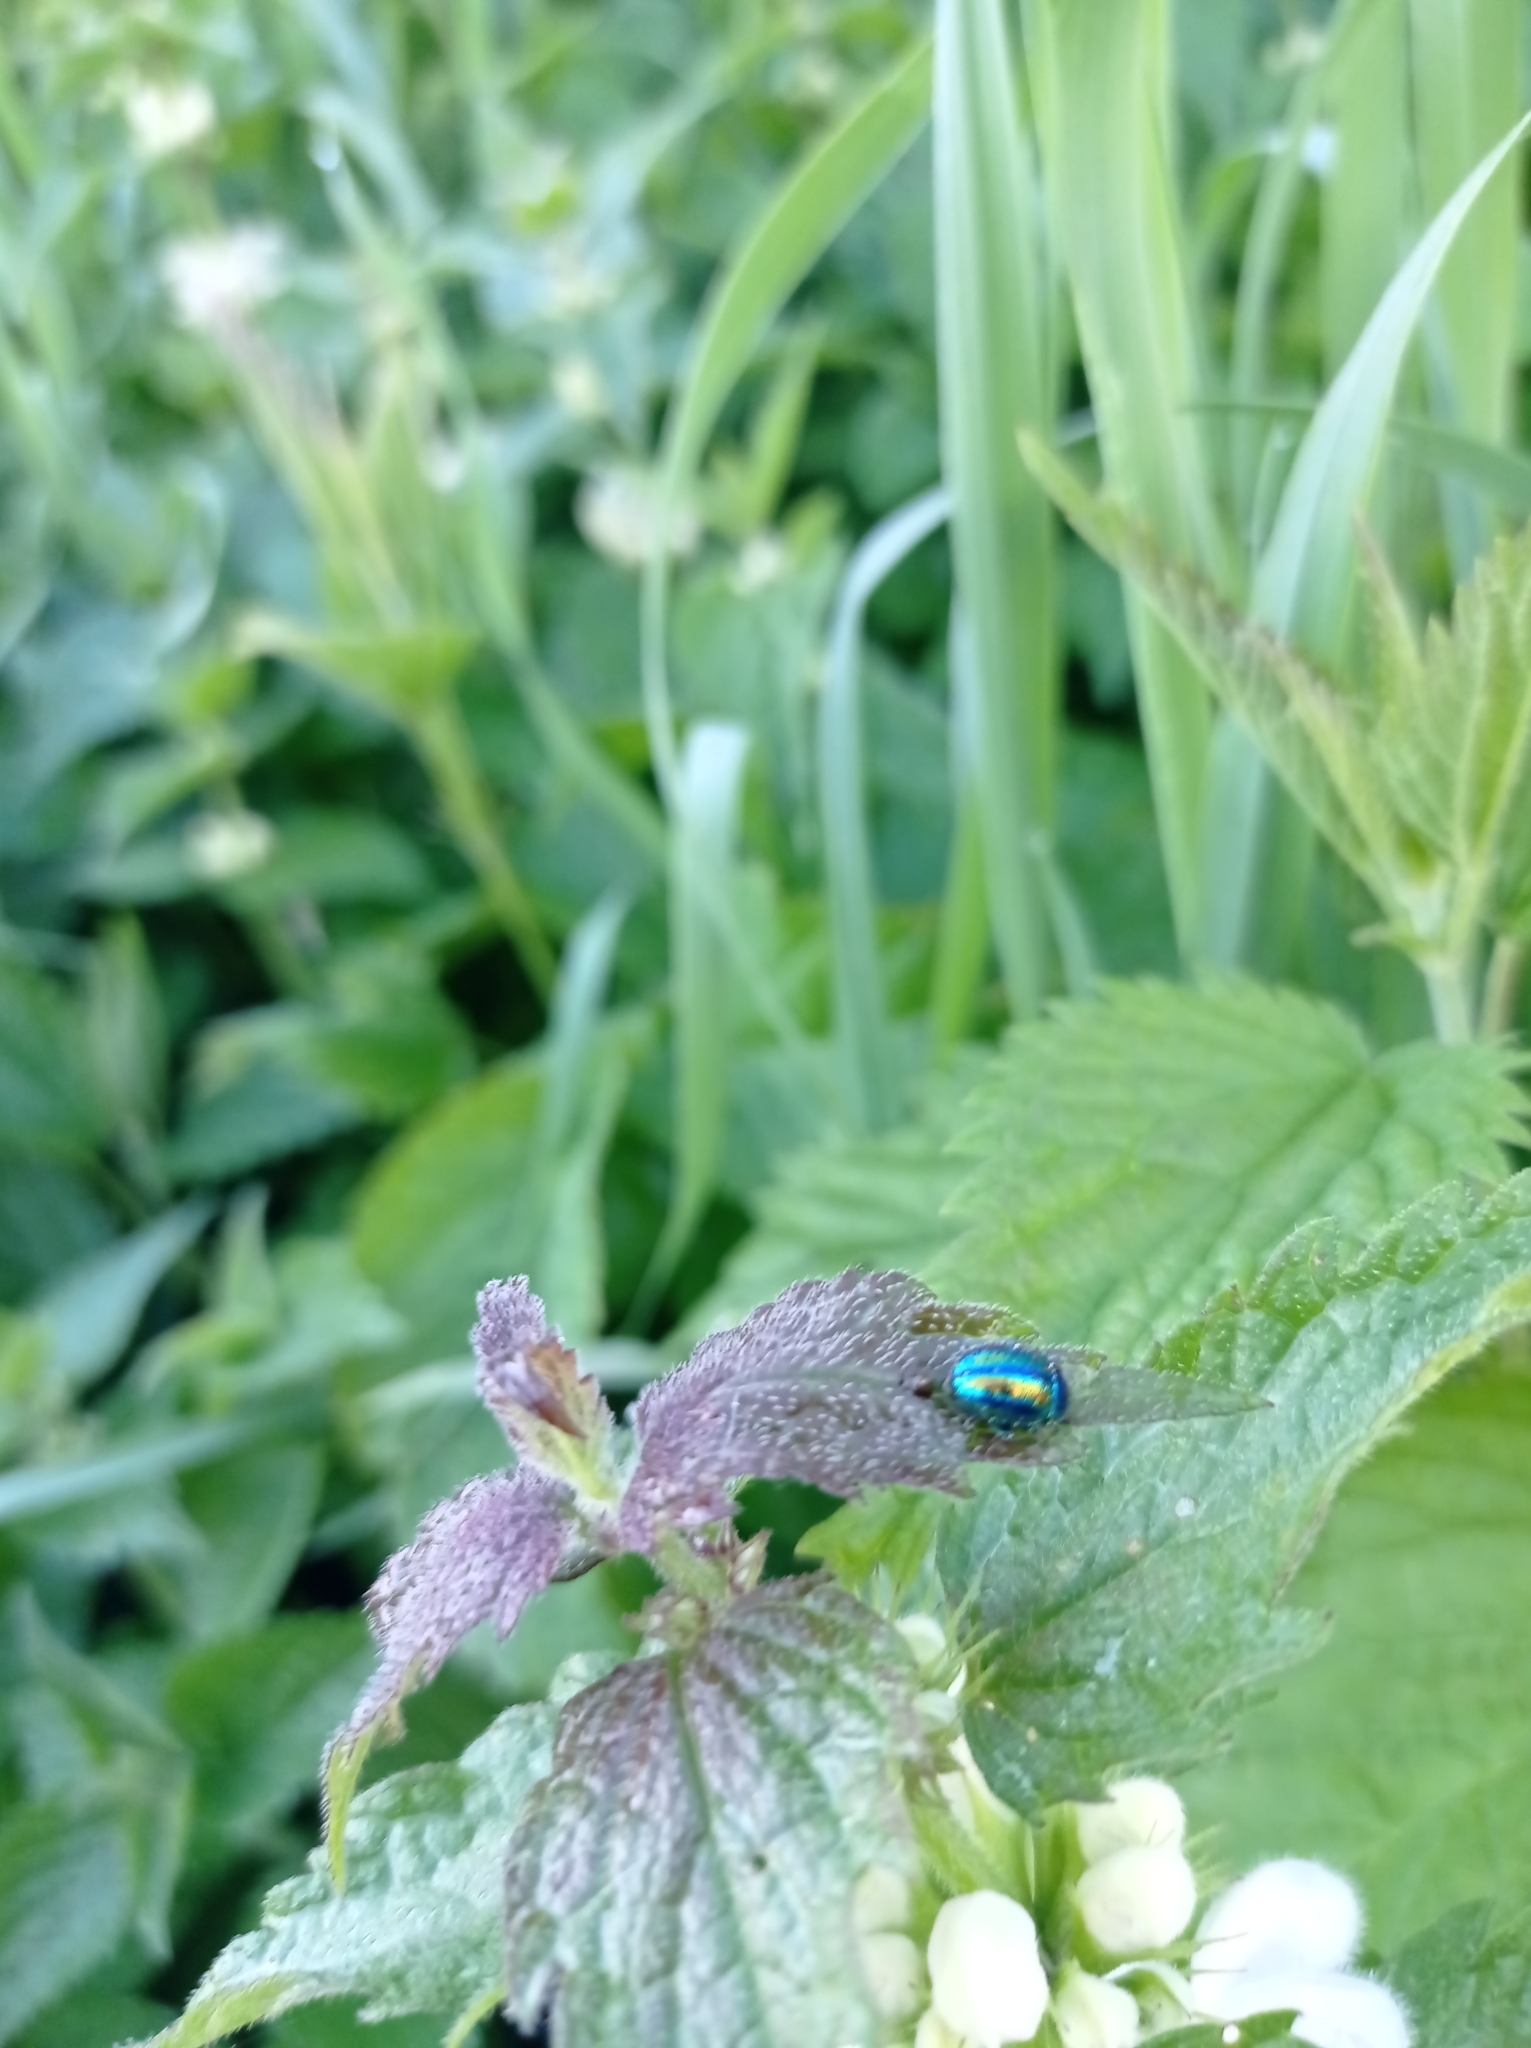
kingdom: Animalia
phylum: Arthropoda
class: Insecta
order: Coleoptera
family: Chrysomelidae
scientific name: Chrysomelidae
